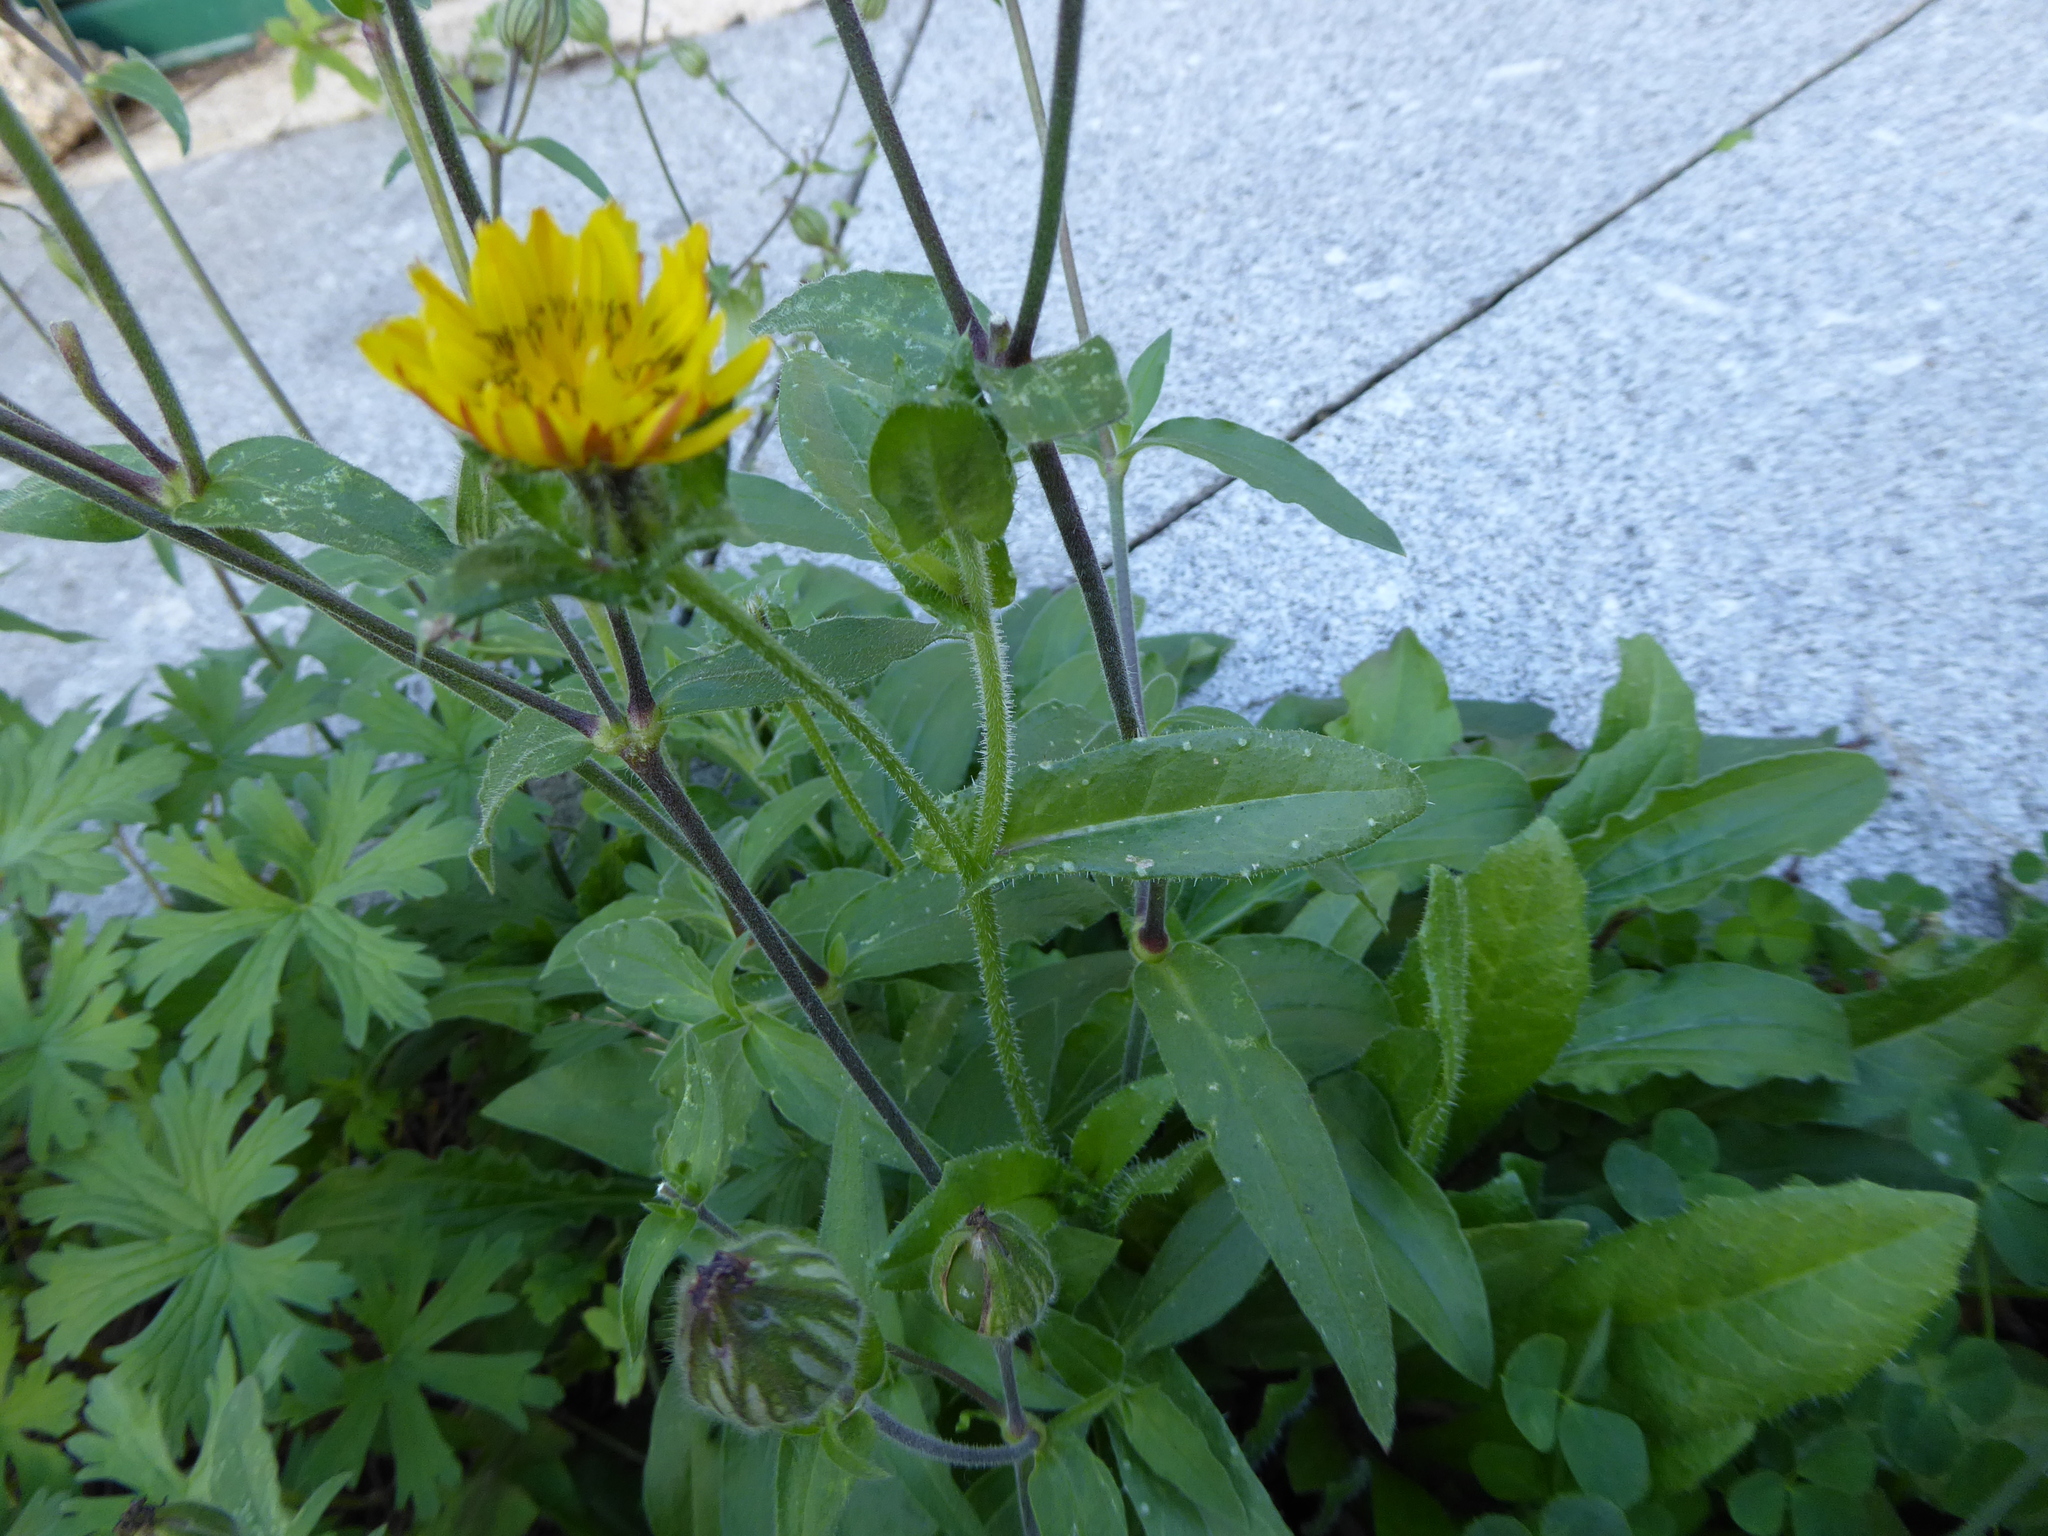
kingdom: Plantae
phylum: Tracheophyta
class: Magnoliopsida
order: Asterales
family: Asteraceae
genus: Helminthotheca
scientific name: Helminthotheca echioides
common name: Ox-tongue
